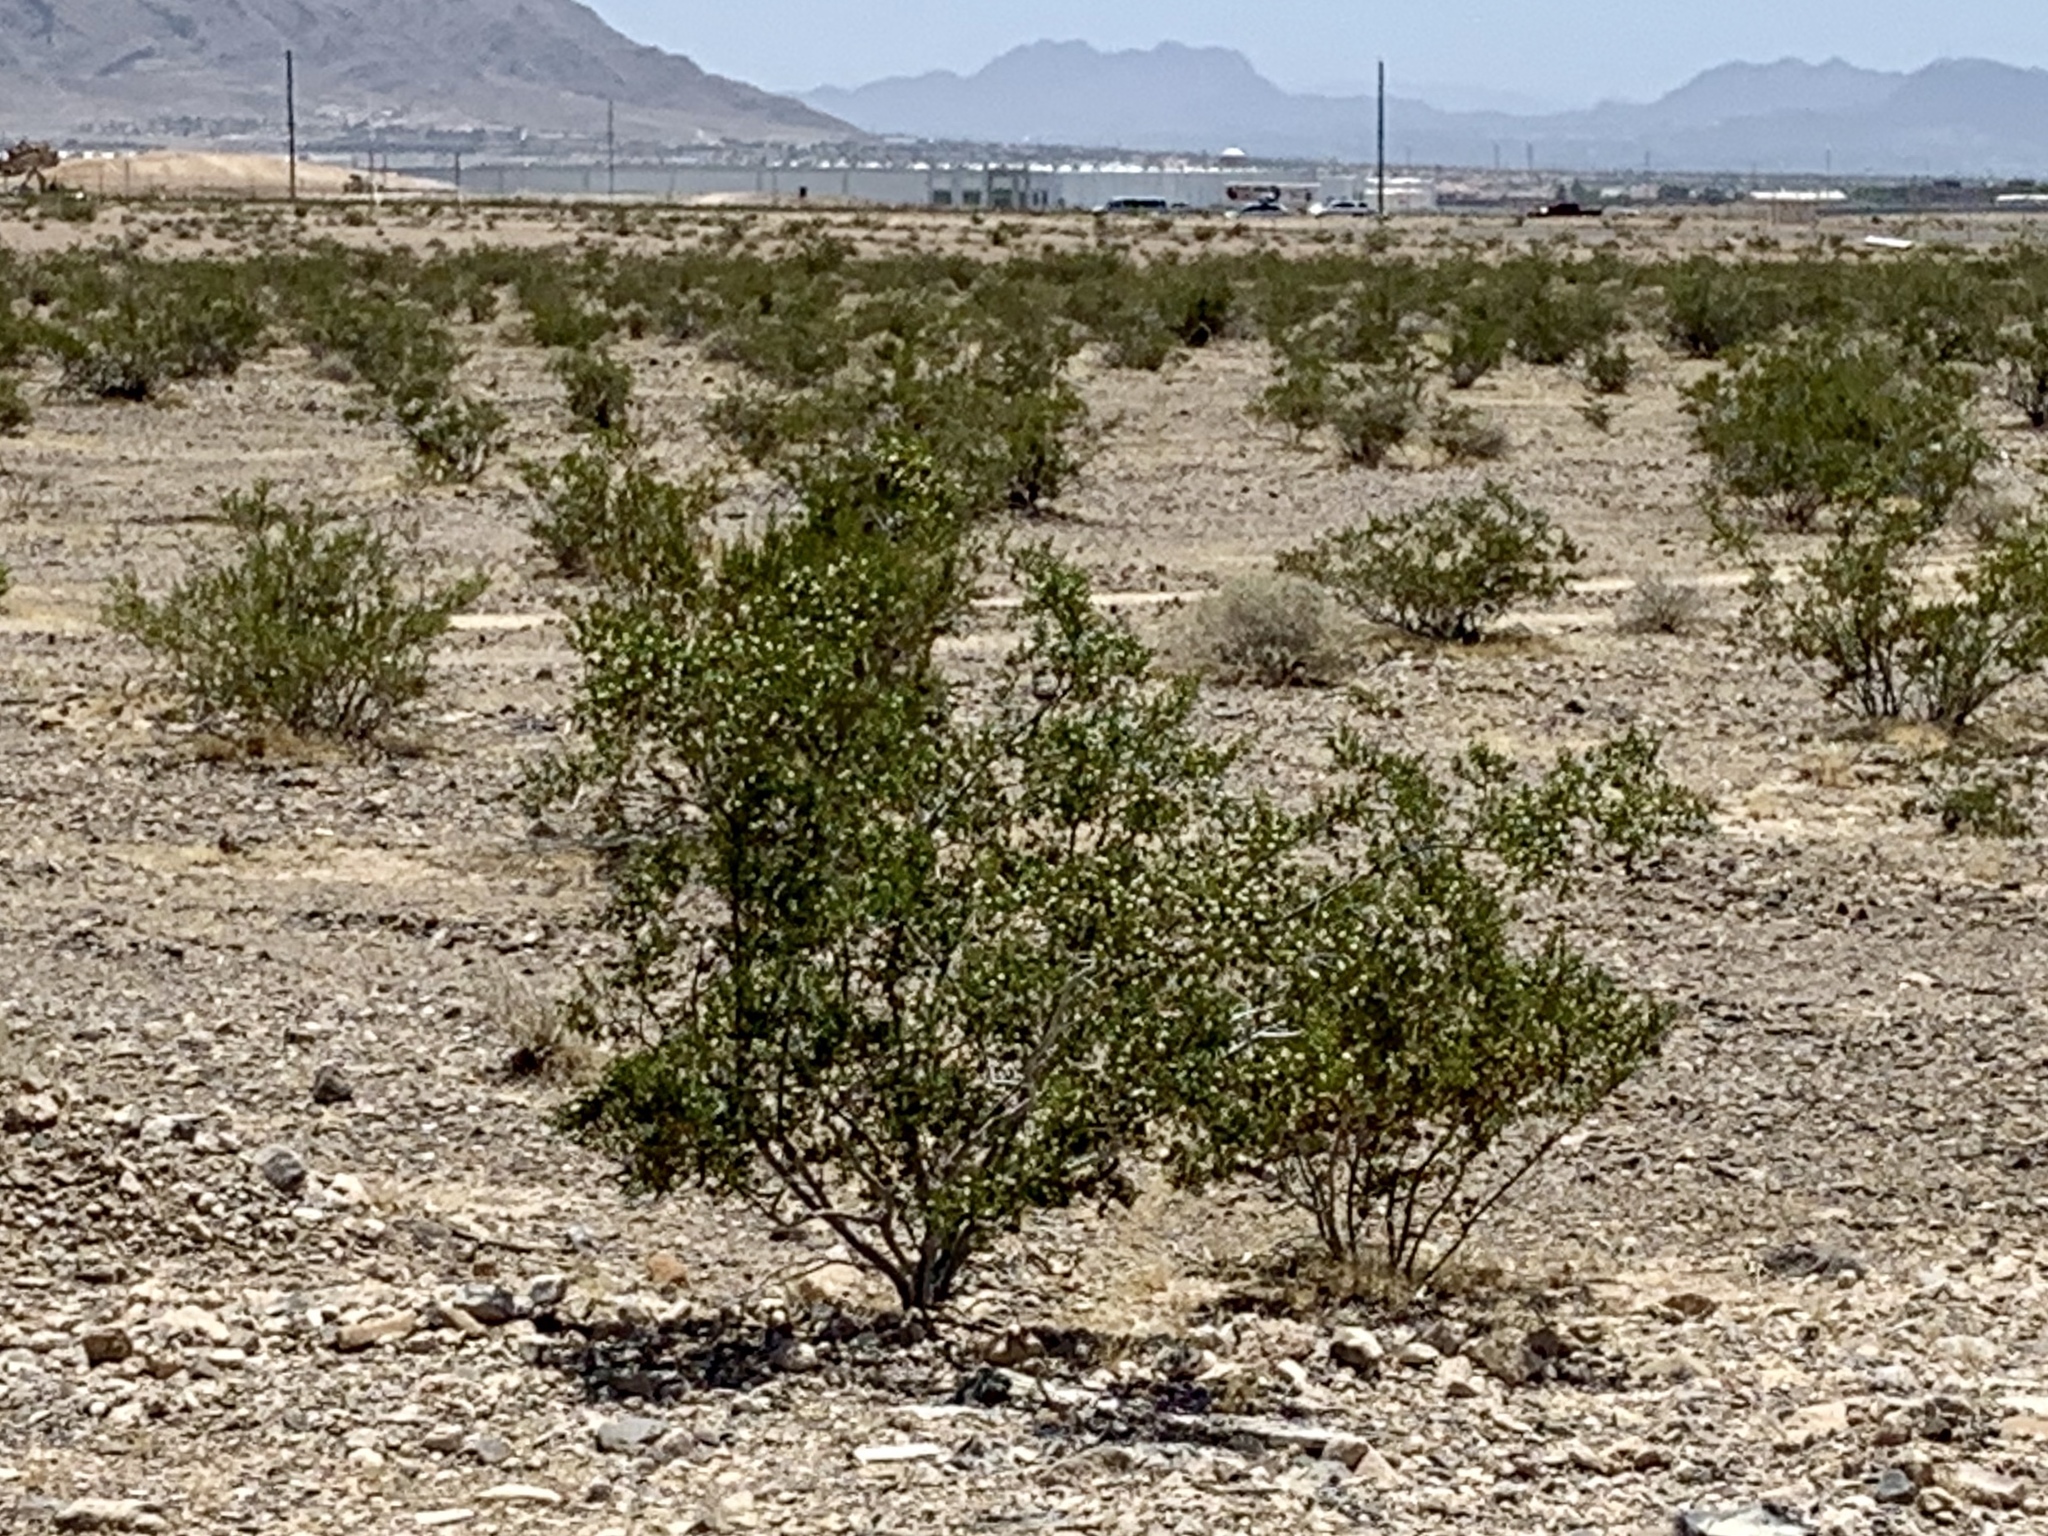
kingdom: Plantae
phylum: Tracheophyta
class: Magnoliopsida
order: Zygophyllales
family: Zygophyllaceae
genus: Larrea
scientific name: Larrea tridentata
